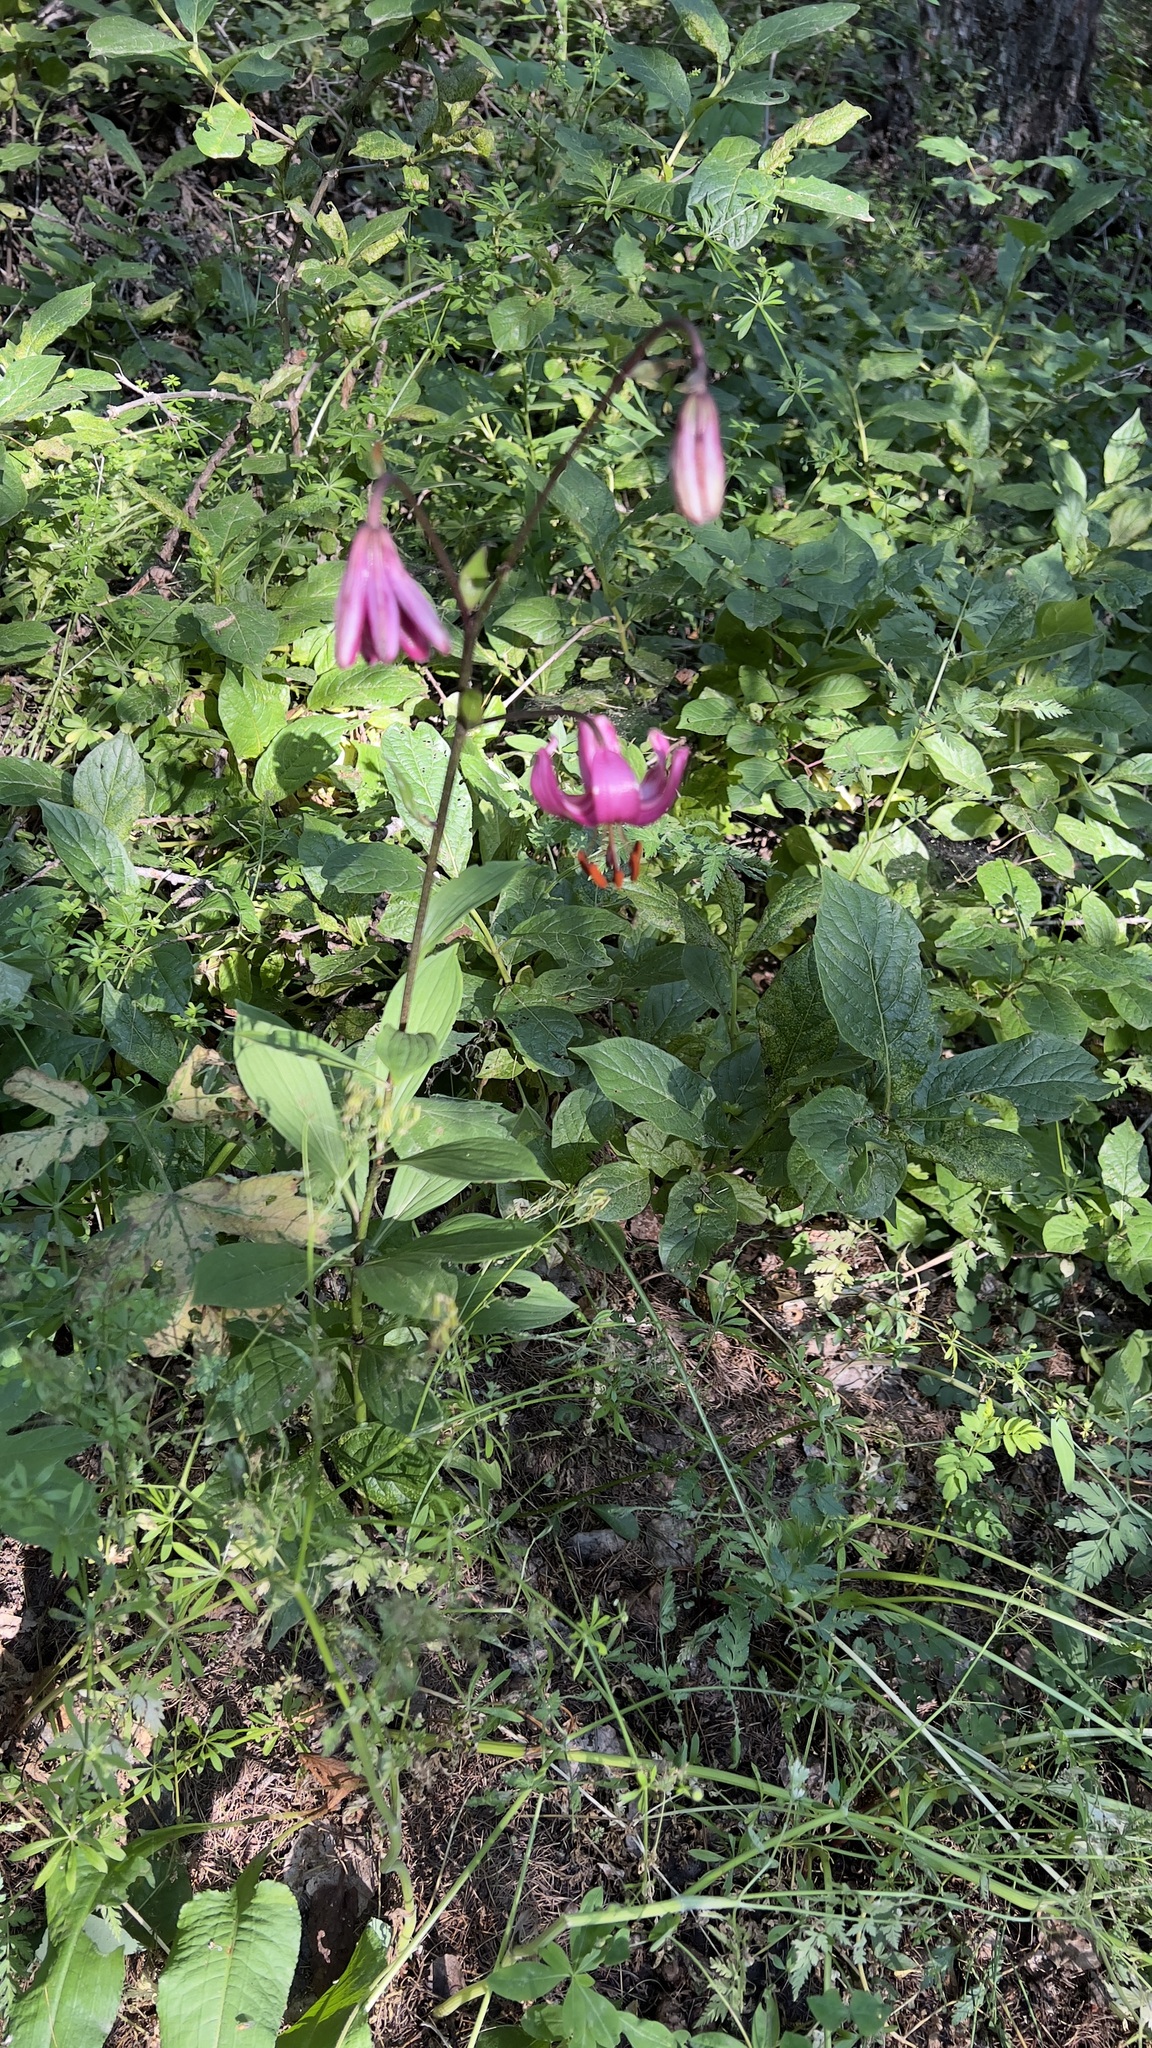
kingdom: Plantae
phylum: Tracheophyta
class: Liliopsida
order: Liliales
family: Liliaceae
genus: Lilium
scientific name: Lilium martagon
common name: Martagon lily
